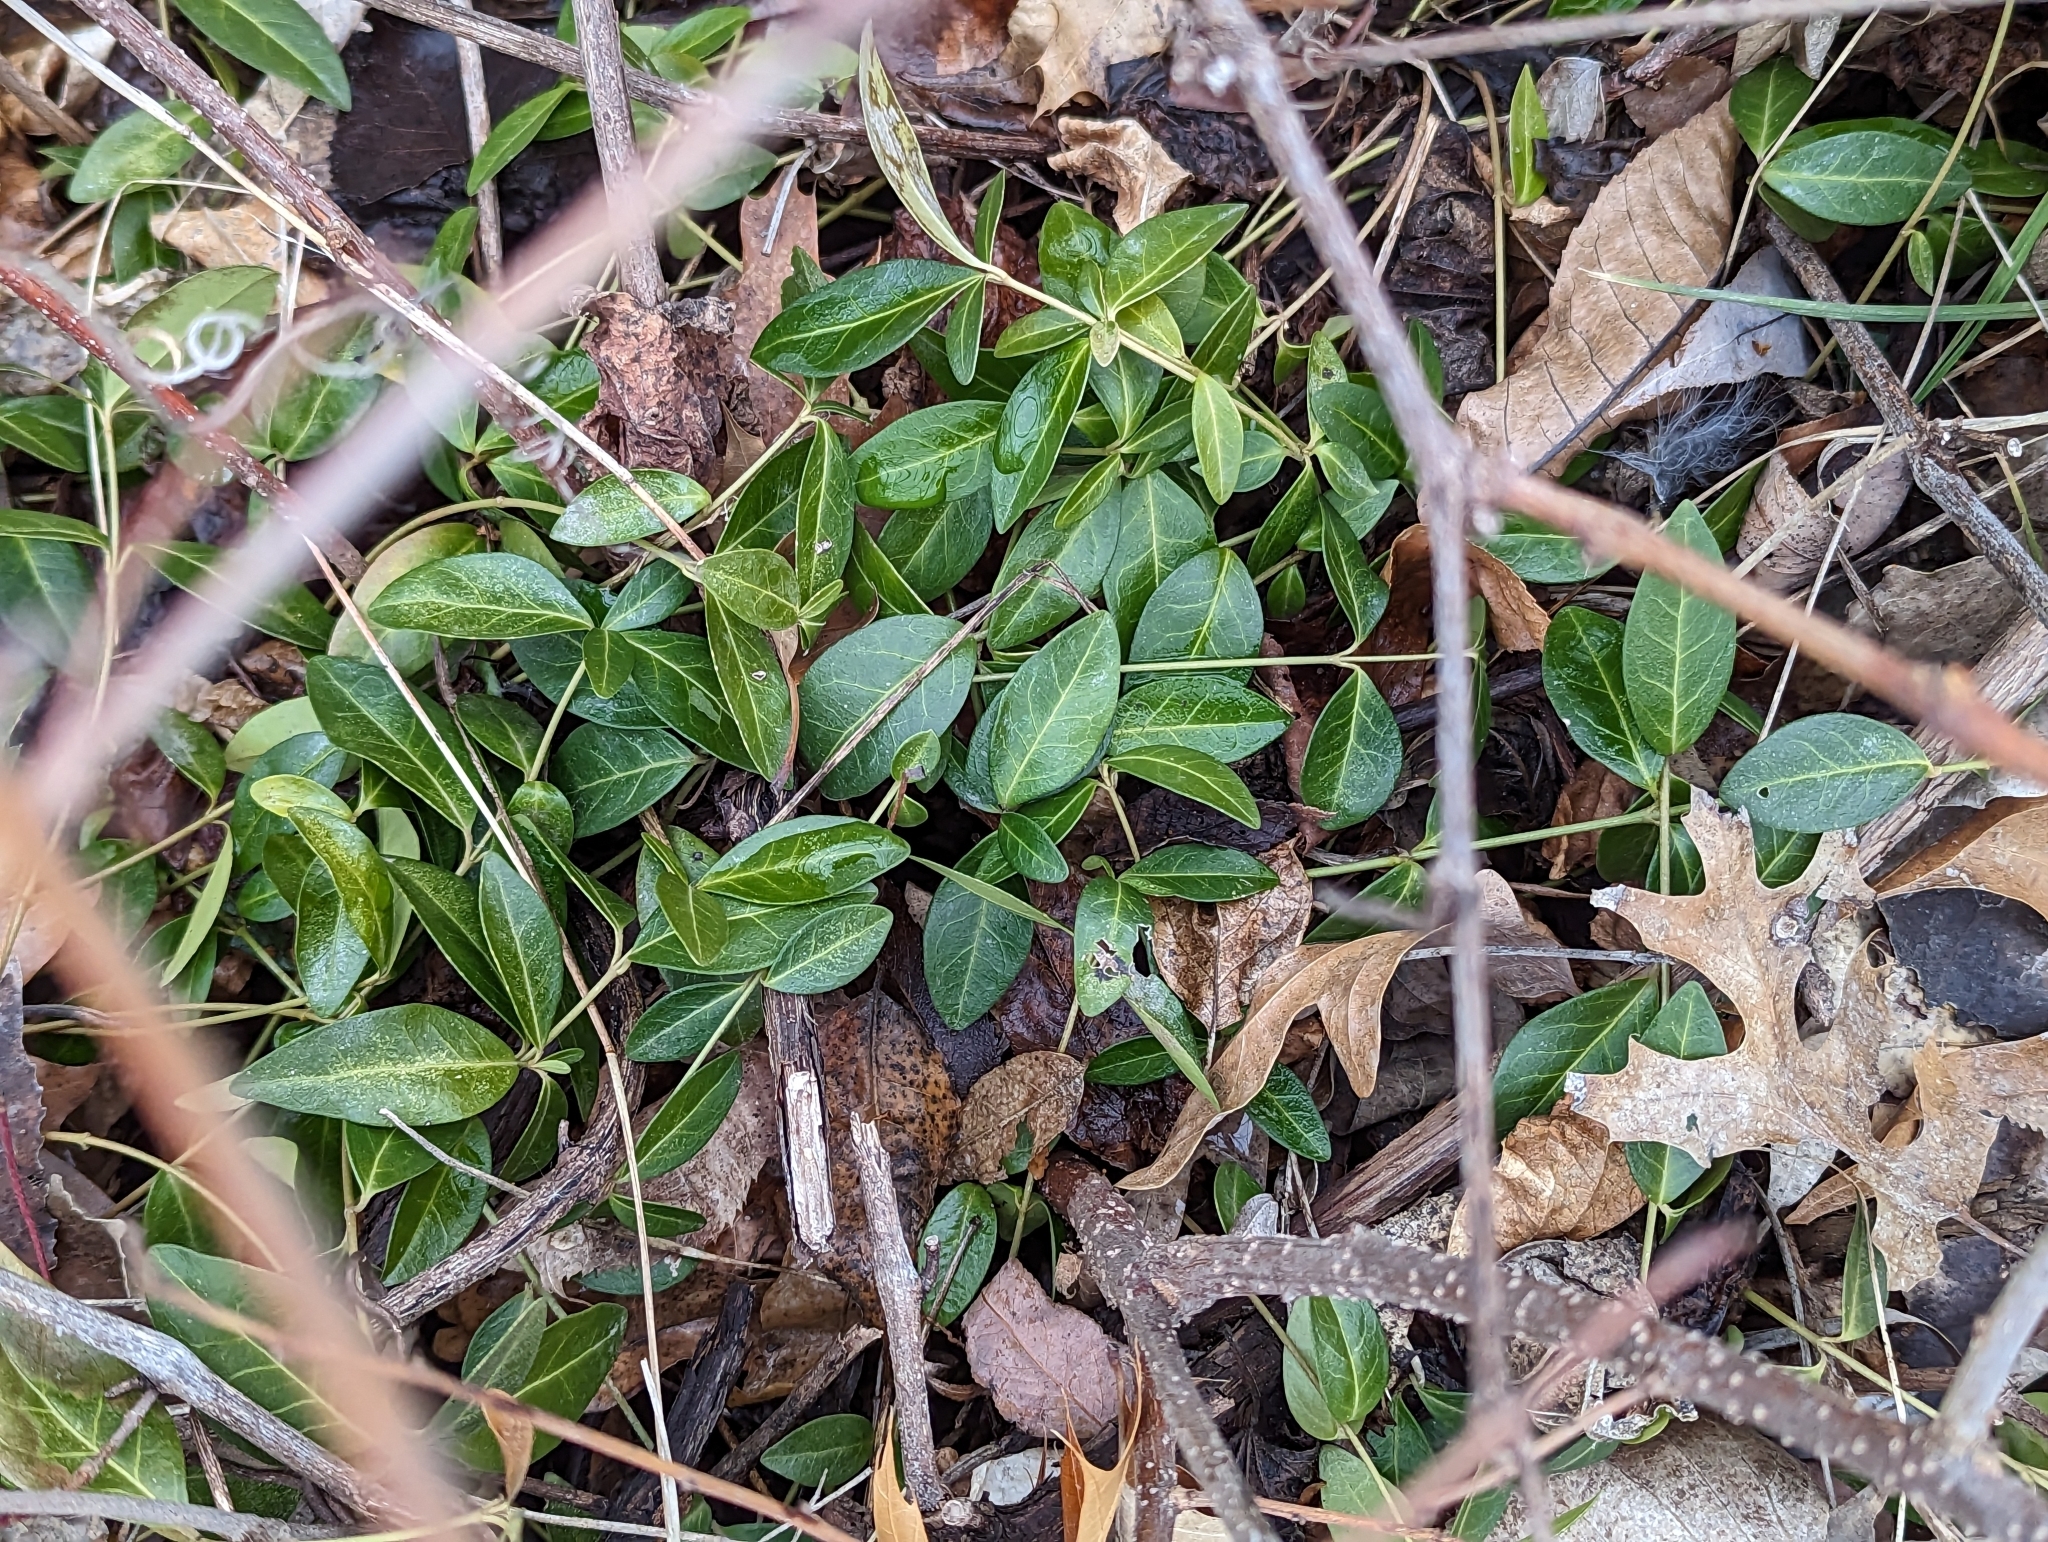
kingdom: Plantae
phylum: Tracheophyta
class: Magnoliopsida
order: Gentianales
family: Apocynaceae
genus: Vinca
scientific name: Vinca minor
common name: Lesser periwinkle
